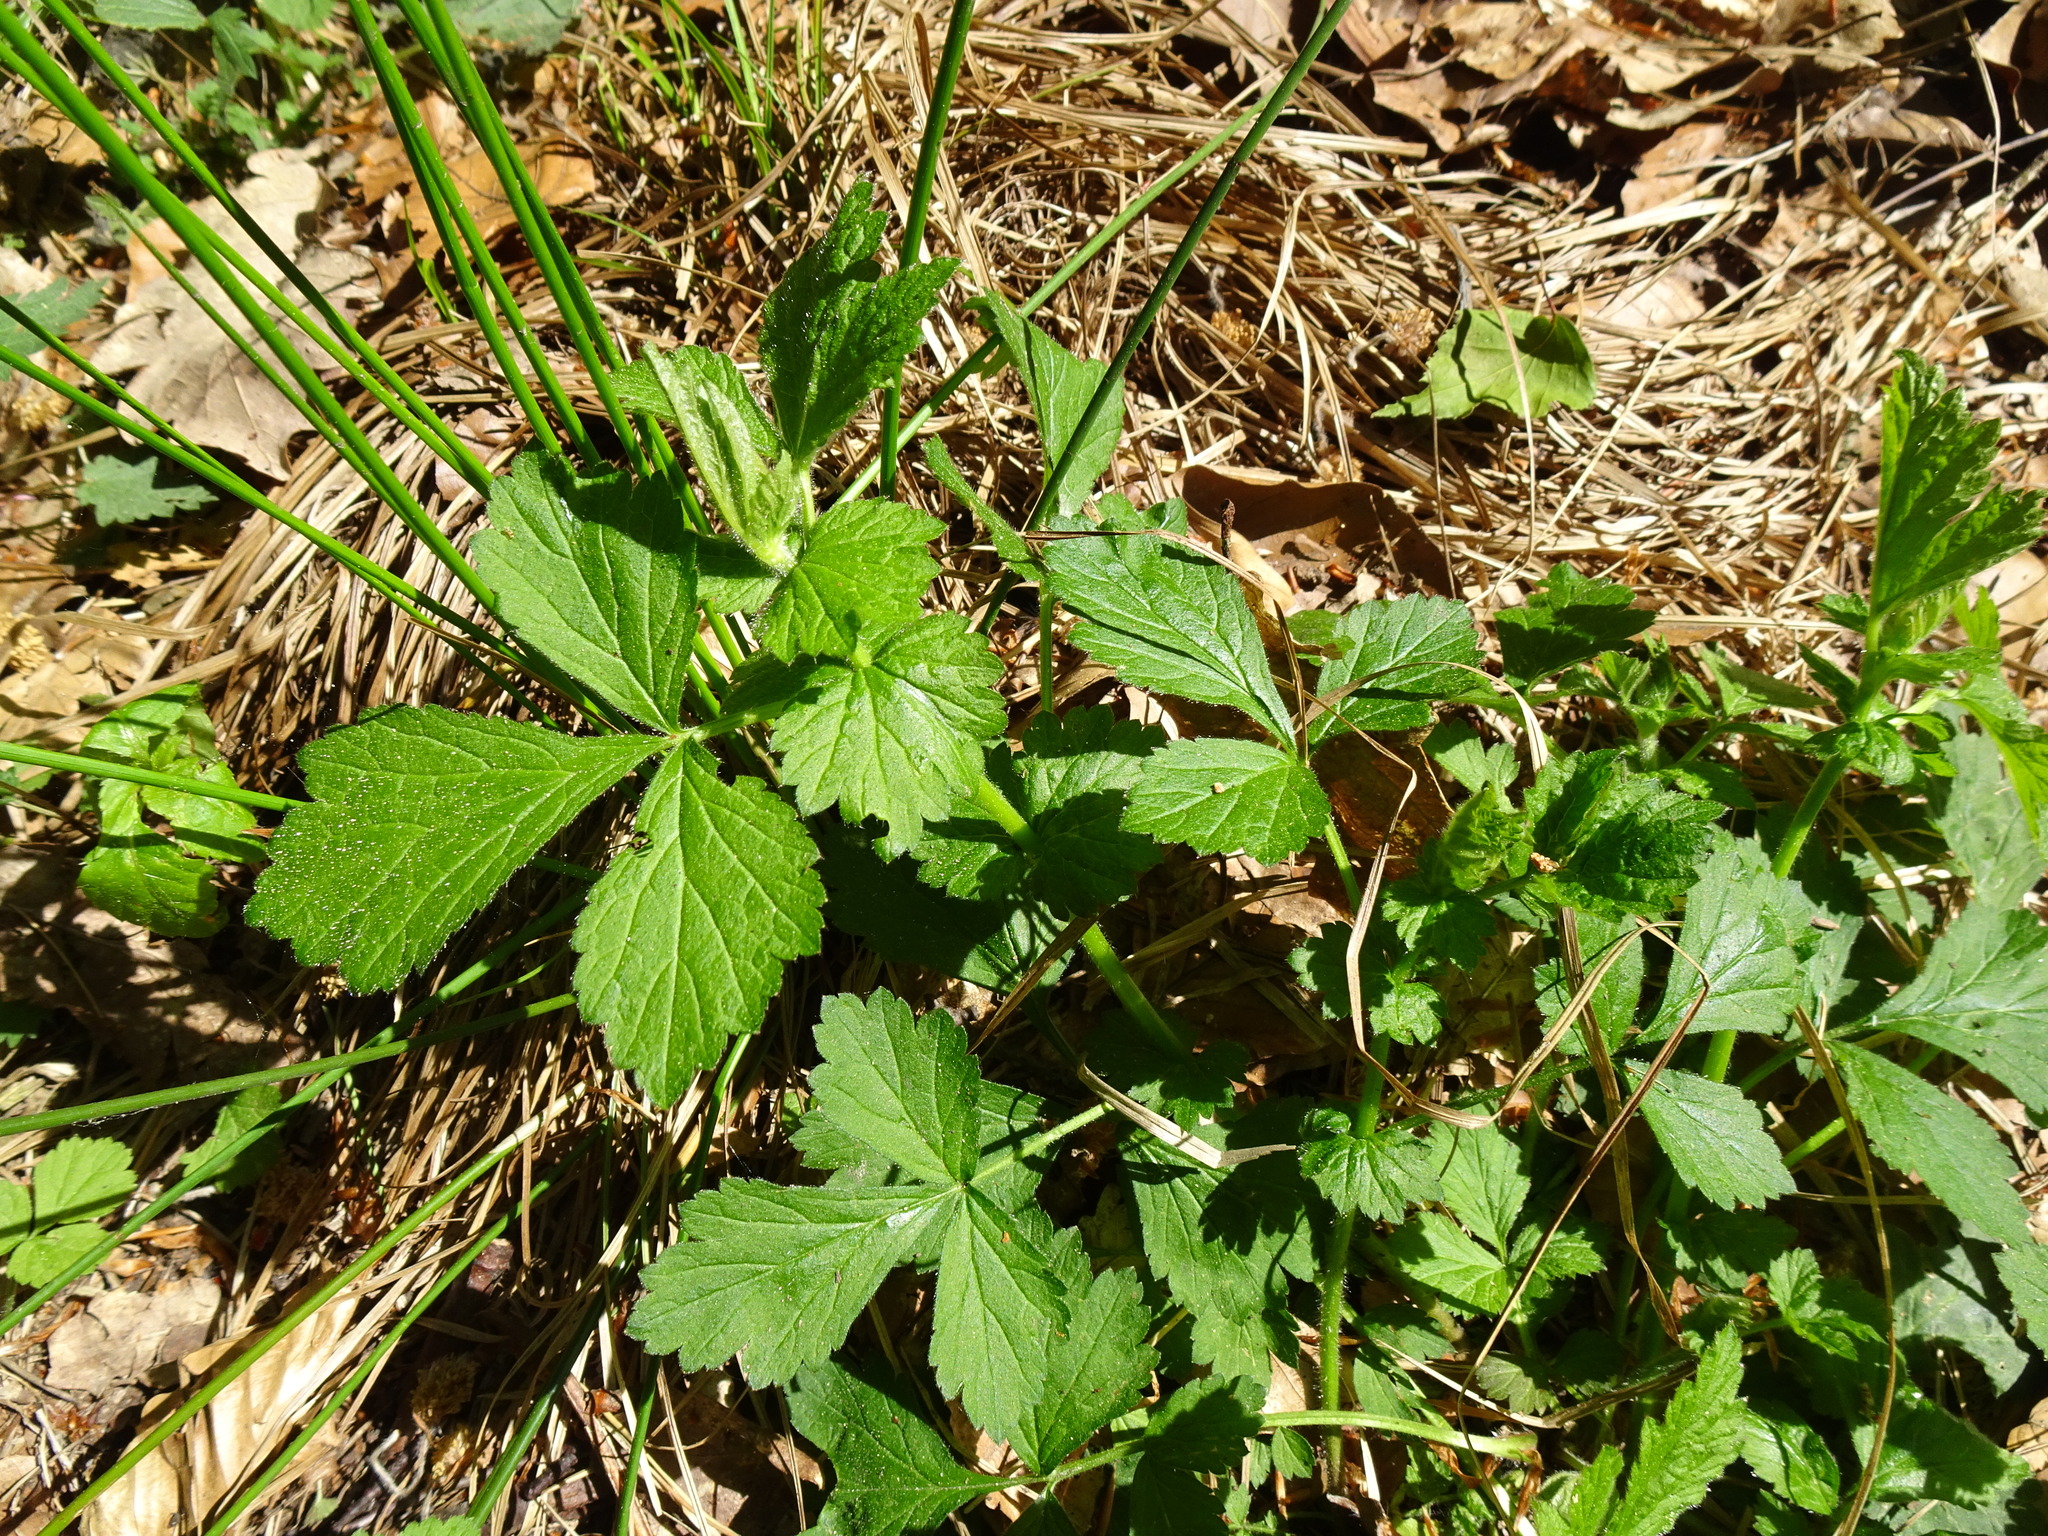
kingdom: Plantae
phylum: Tracheophyta
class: Magnoliopsida
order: Rosales
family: Rosaceae
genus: Geum
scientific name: Geum urbanum
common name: Wood avens
